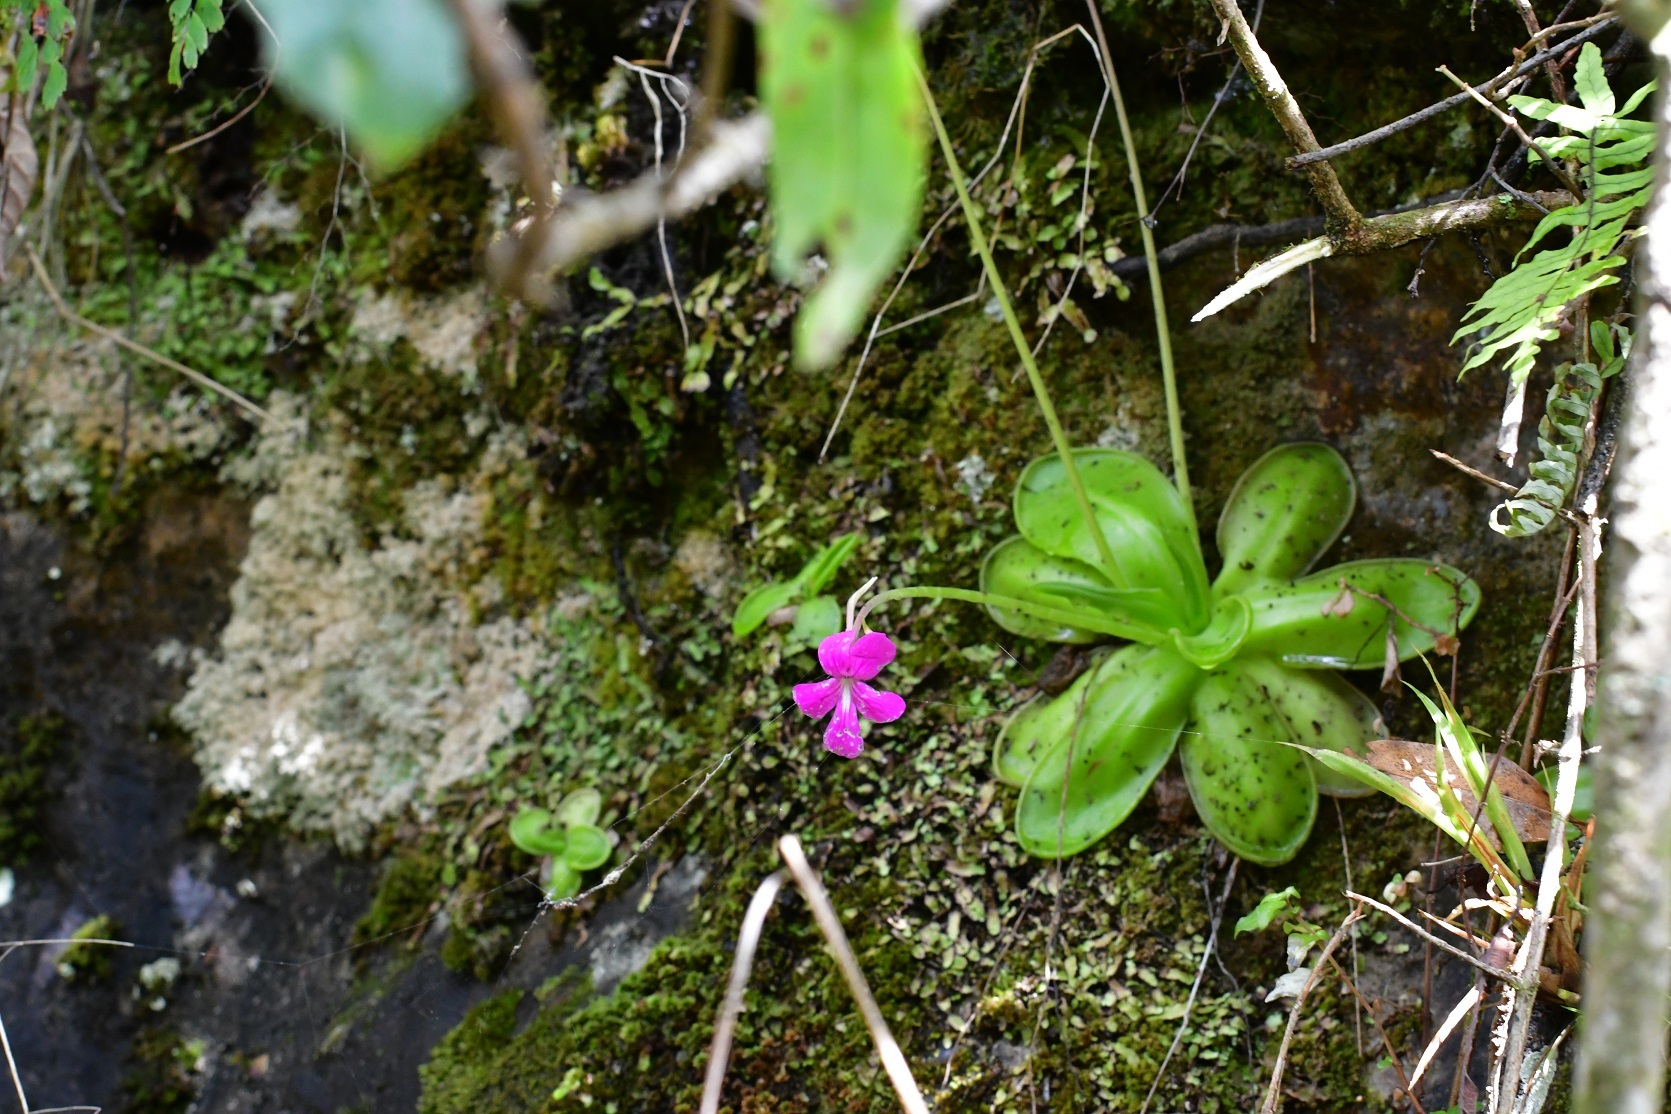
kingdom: Plantae
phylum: Tracheophyta
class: Magnoliopsida
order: Lamiales
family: Lentibulariaceae
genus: Pinguicula
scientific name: Pinguicula moranensis
